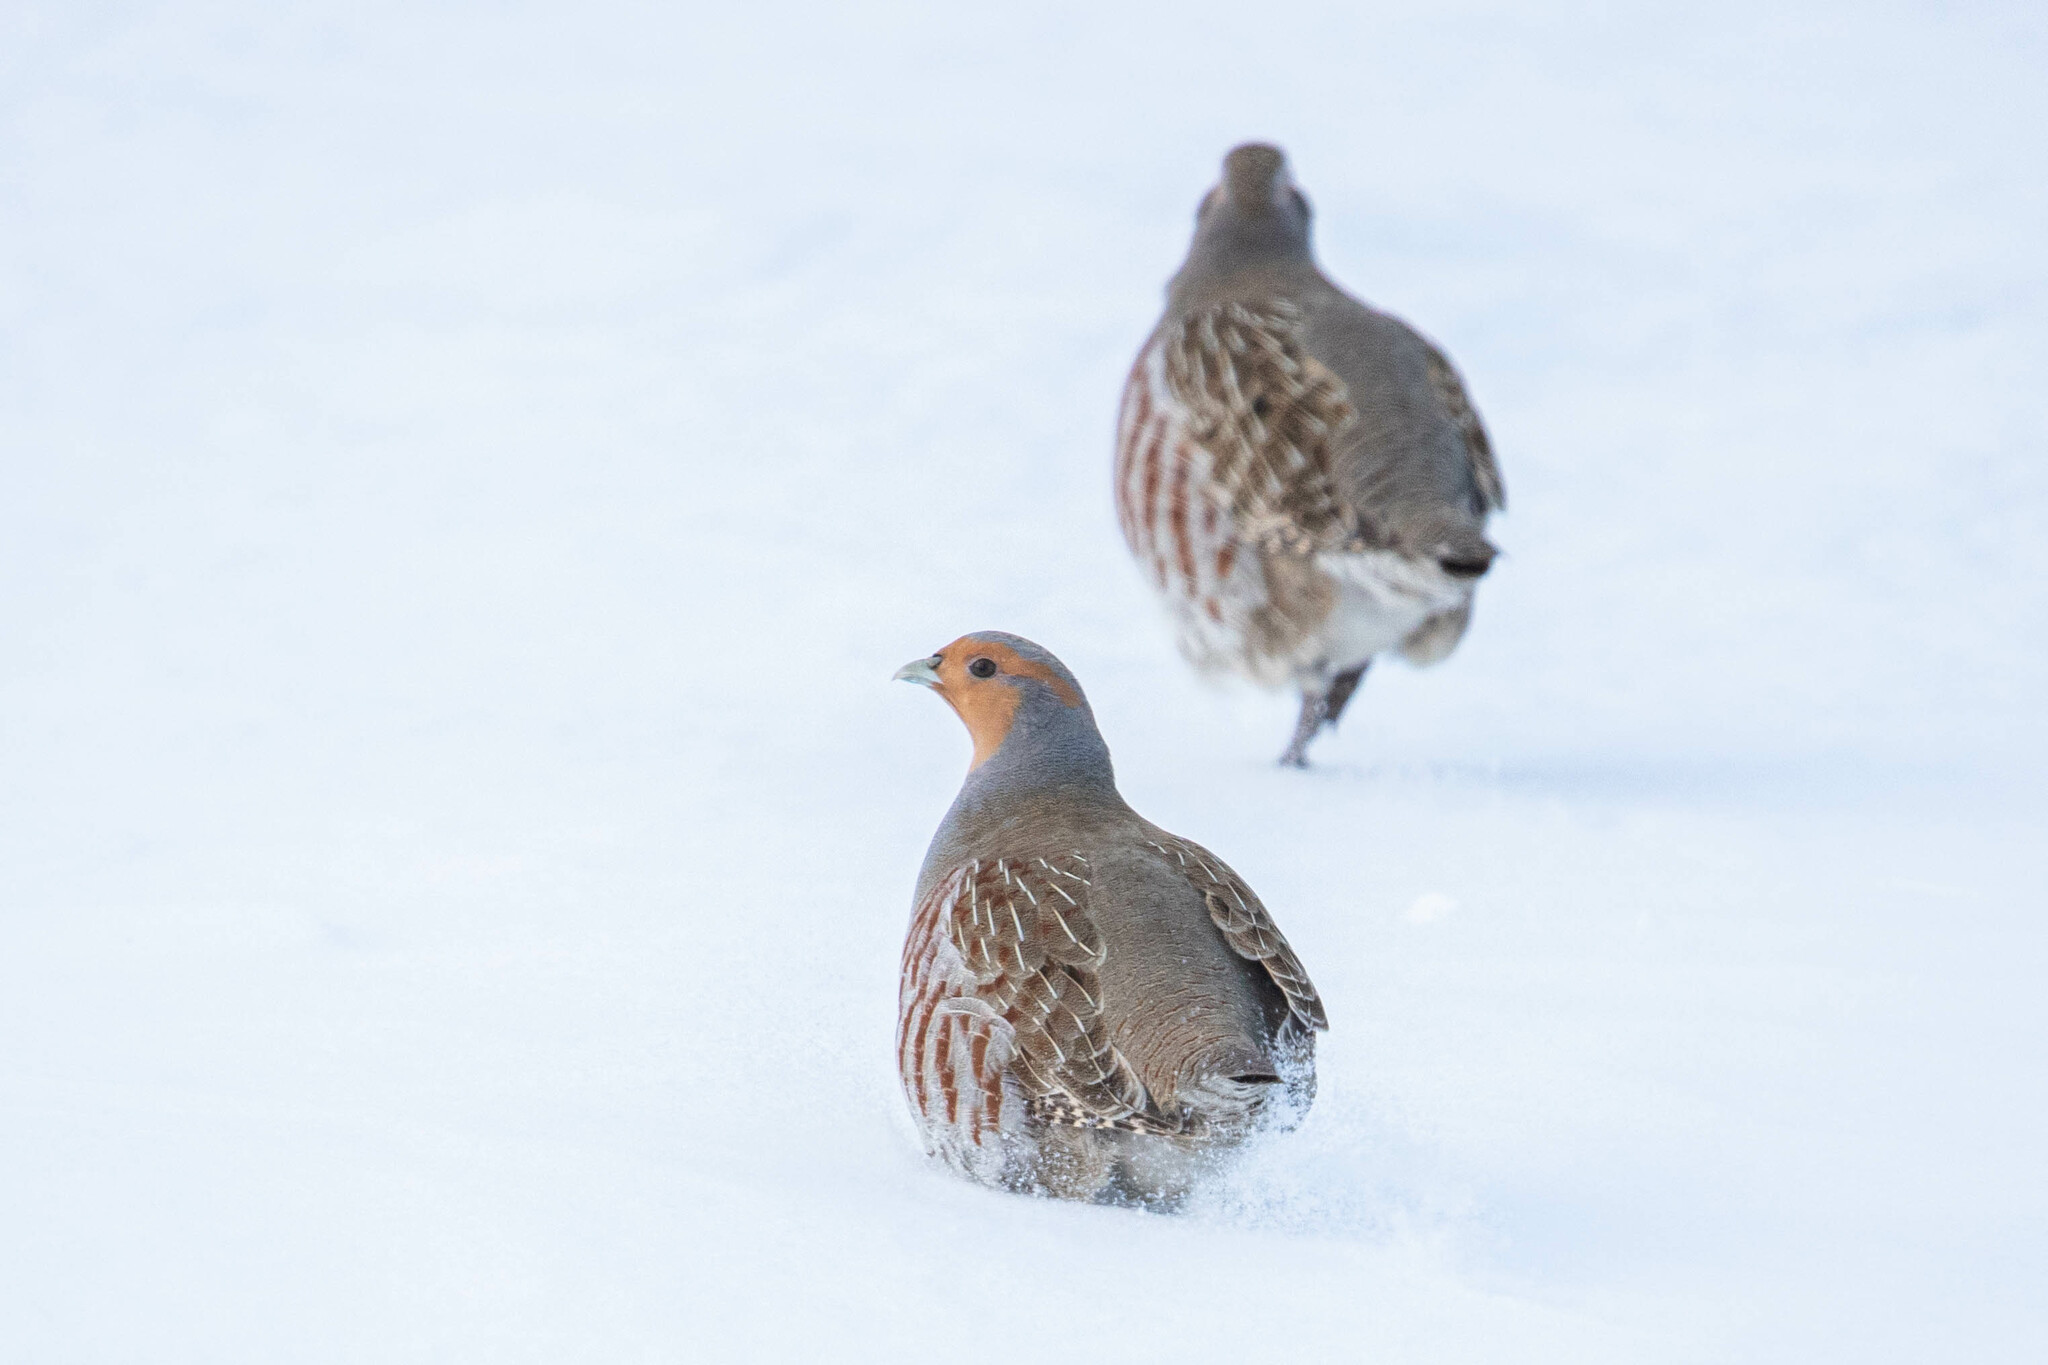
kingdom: Animalia
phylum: Chordata
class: Aves
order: Galliformes
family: Phasianidae
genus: Perdix
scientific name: Perdix perdix
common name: Grey partridge
